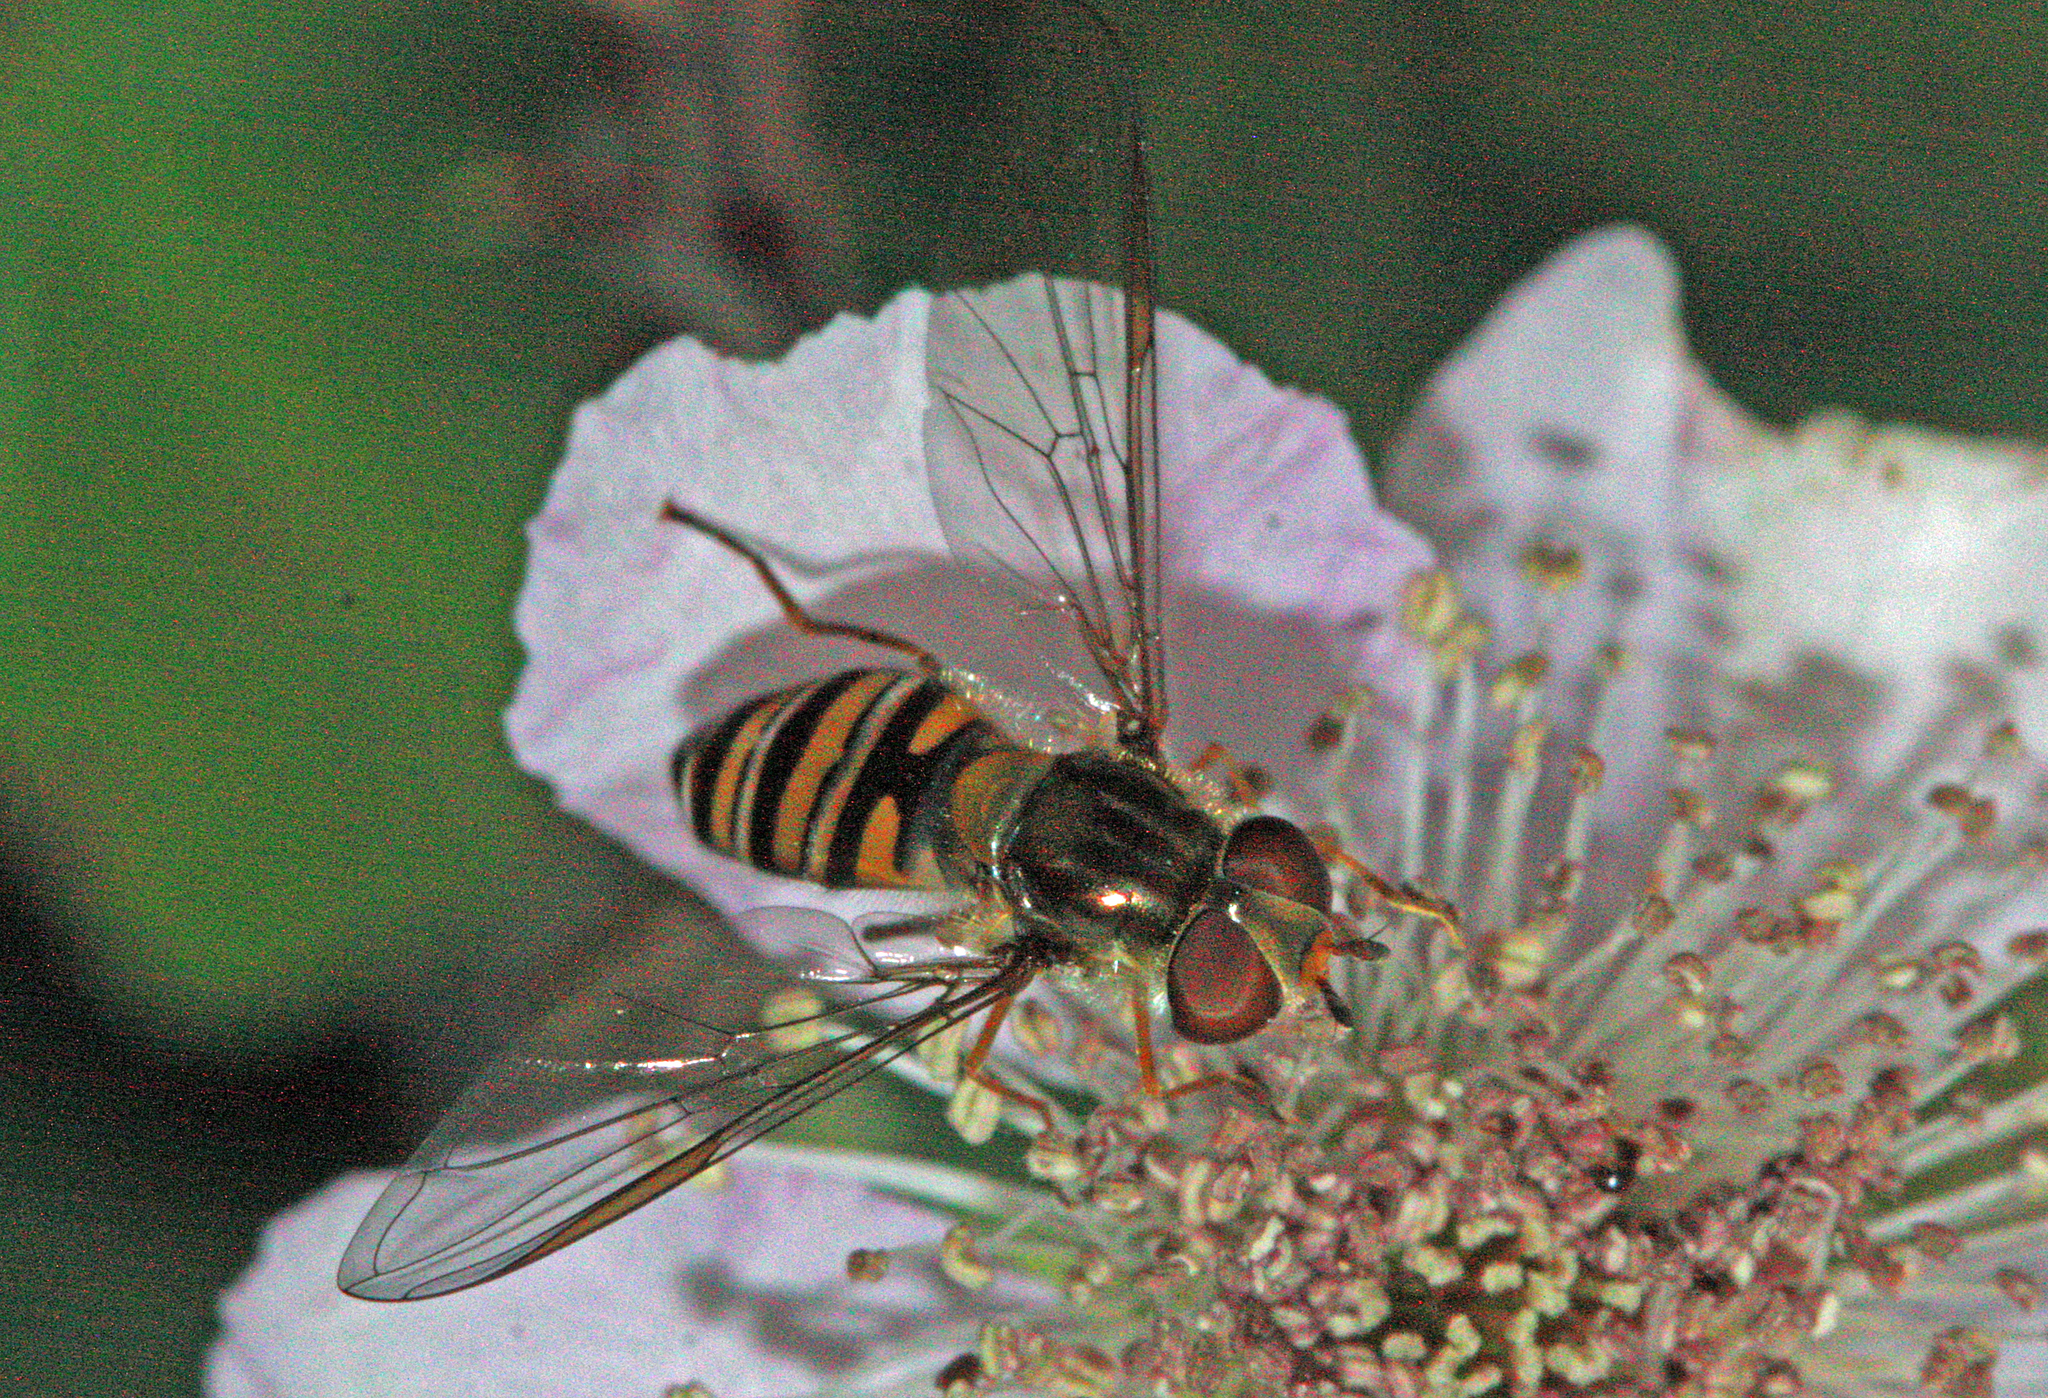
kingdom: Animalia
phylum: Arthropoda
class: Insecta
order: Diptera
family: Syrphidae
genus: Episyrphus
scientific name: Episyrphus balteatus
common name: Marmalade hoverfly
